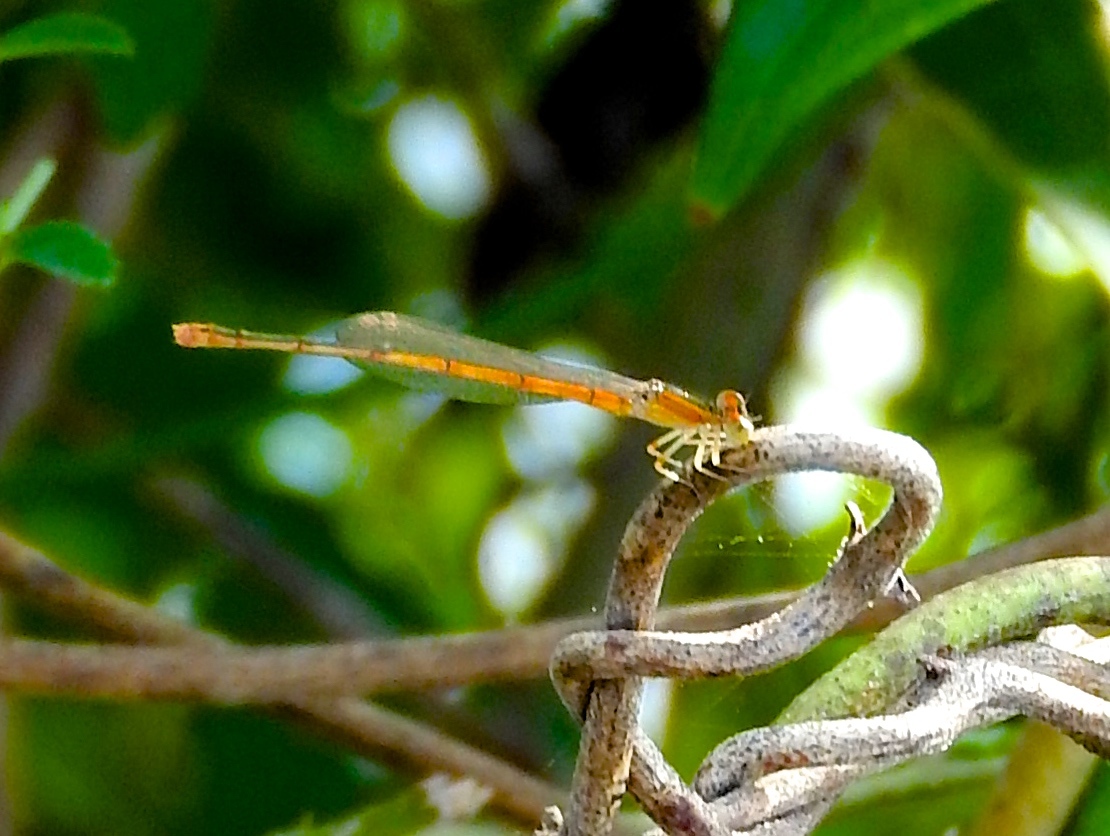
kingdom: Animalia
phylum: Arthropoda
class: Insecta
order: Odonata
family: Coenagrionidae
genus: Ischnura
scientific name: Ischnura hastata
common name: Citrine forktail
